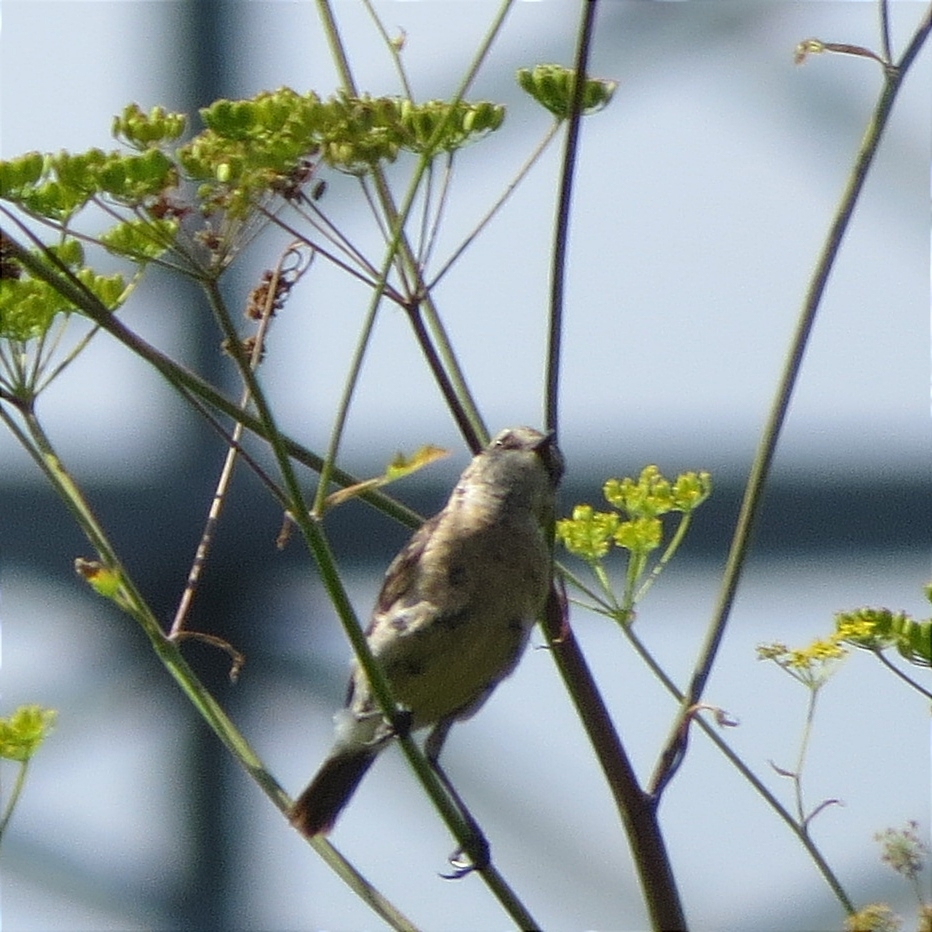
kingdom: Animalia
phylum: Chordata
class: Aves
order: Passeriformes
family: Muscicapidae
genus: Saxicola
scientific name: Saxicola maurus
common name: Siberian stonechat
